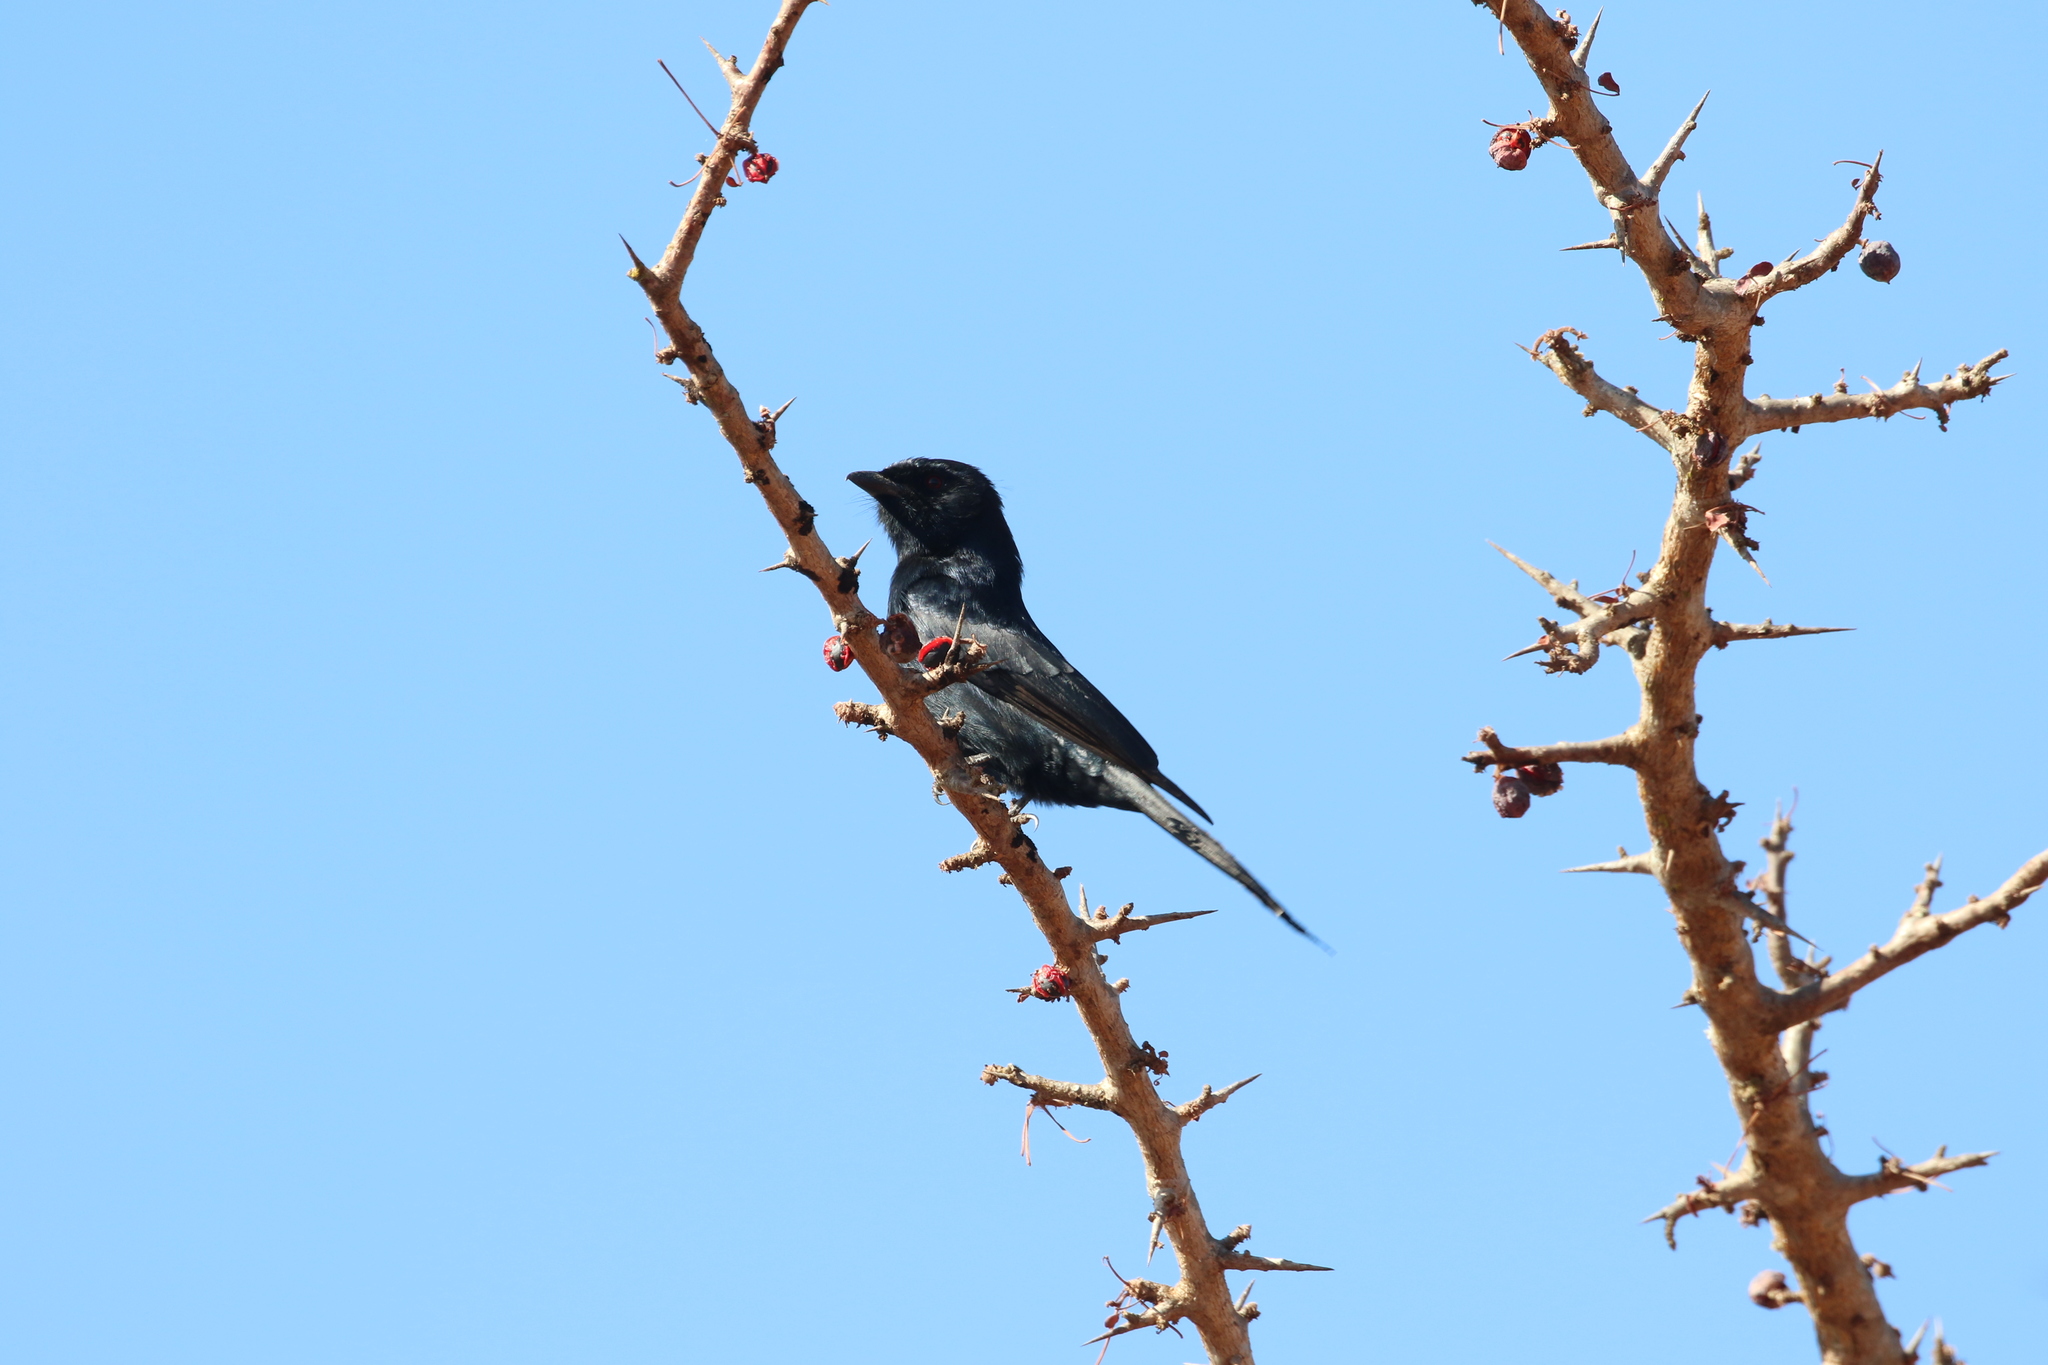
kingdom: Animalia
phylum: Chordata
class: Aves
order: Passeriformes
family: Dicruridae
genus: Dicrurus
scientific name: Dicrurus adsimilis
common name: Fork-tailed drongo
